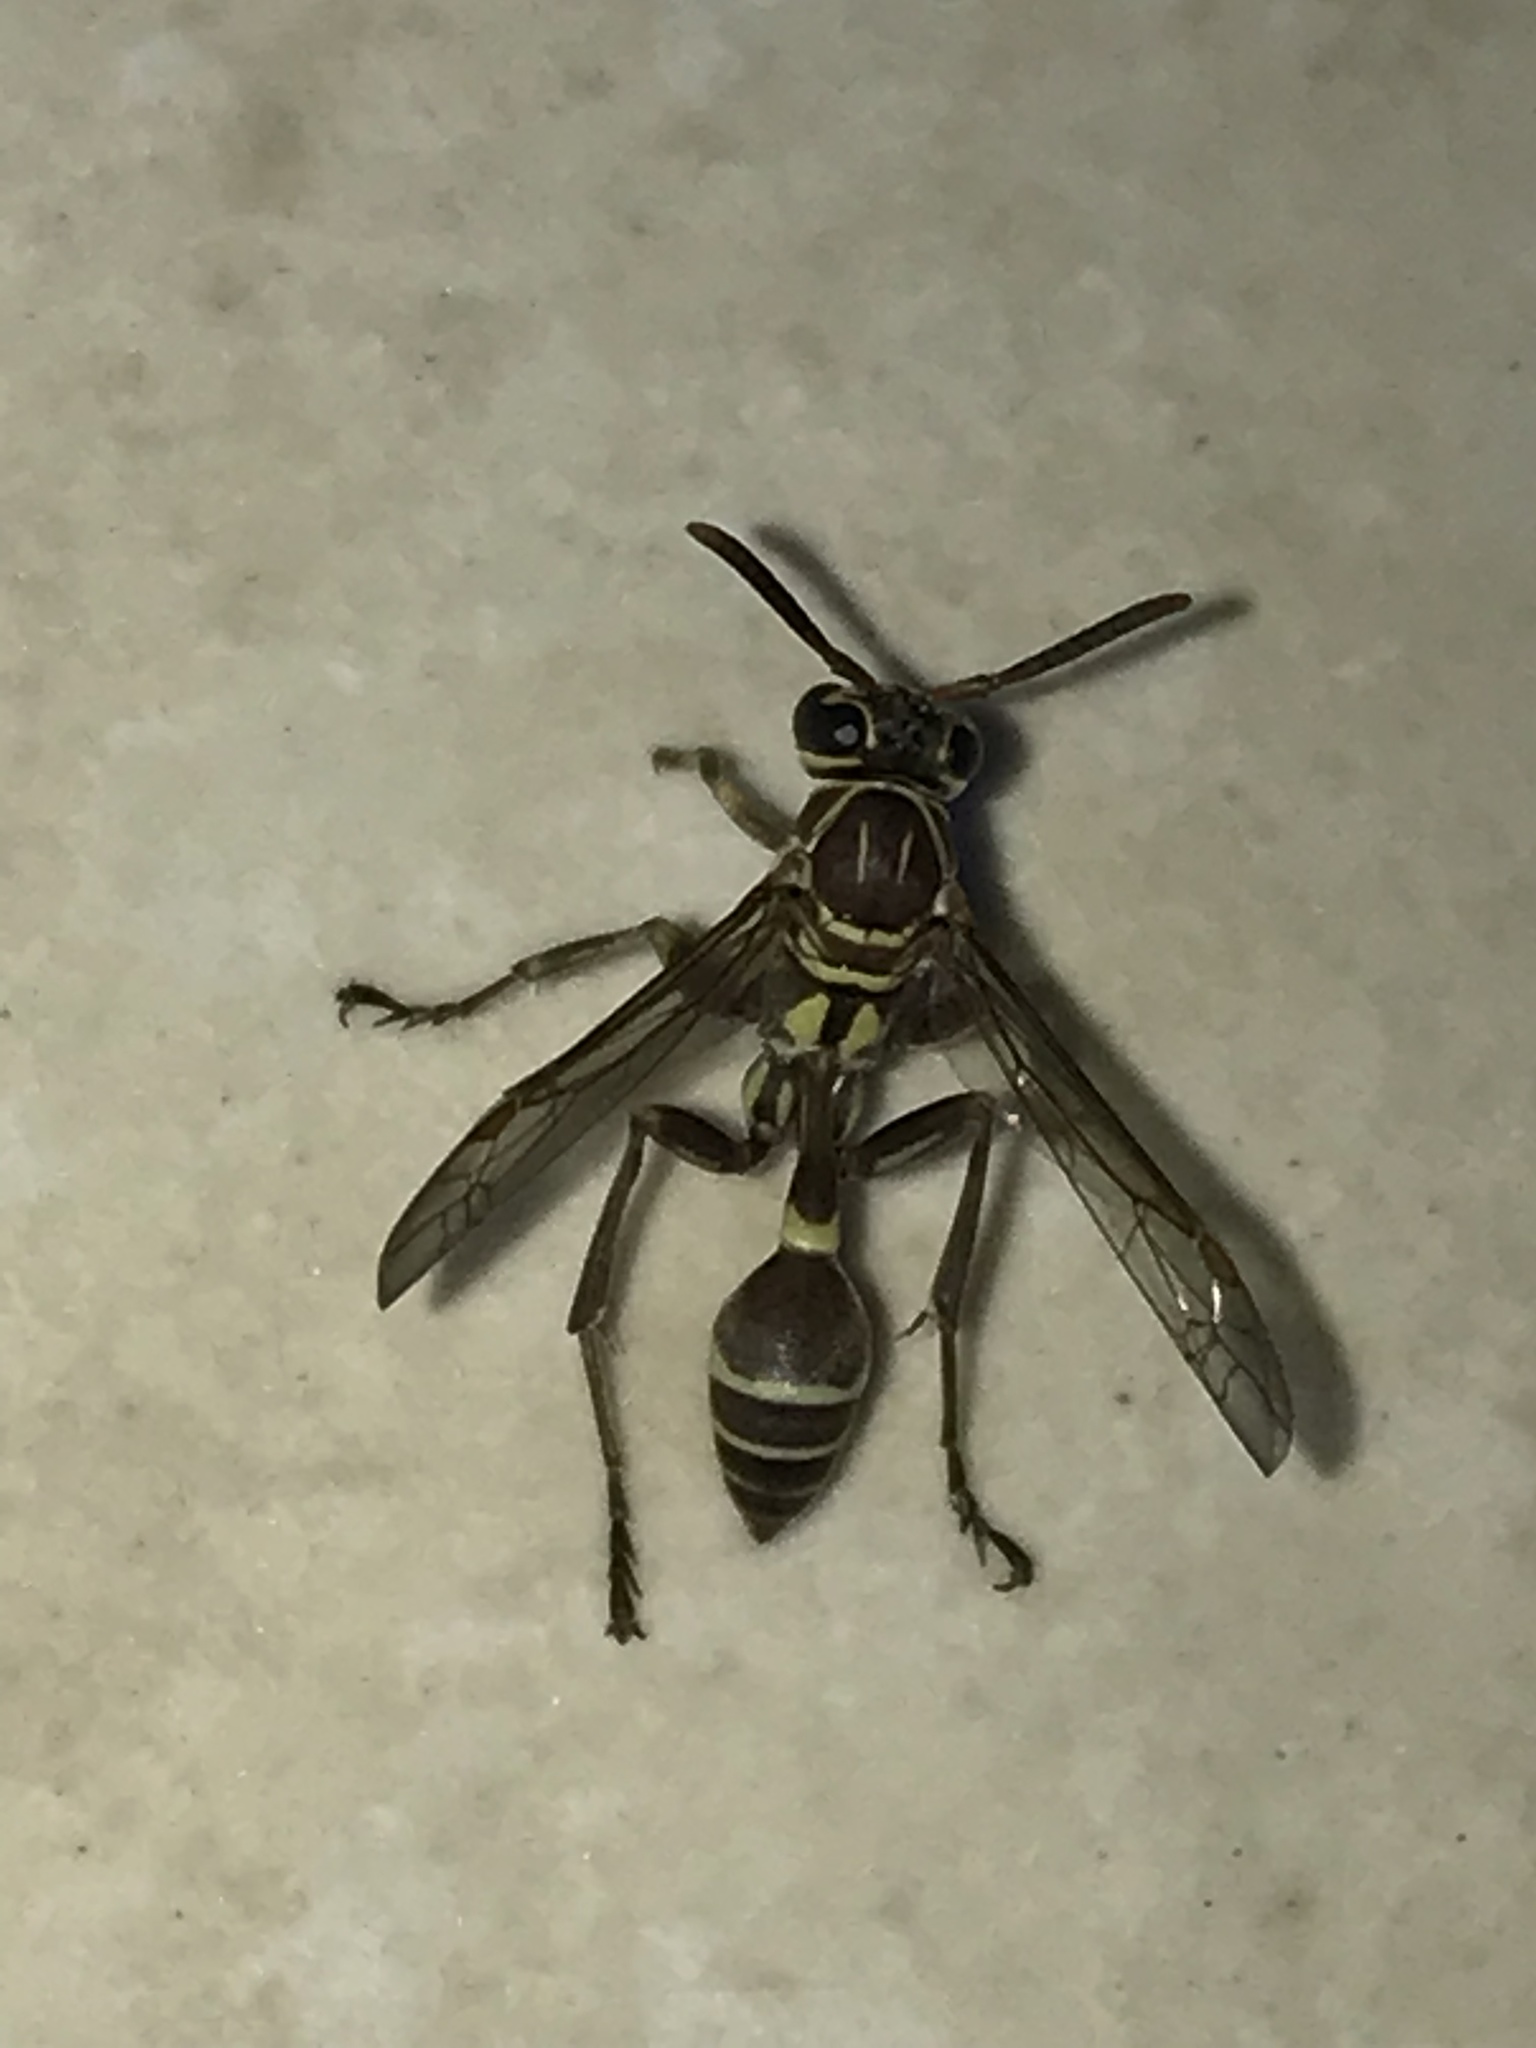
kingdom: Animalia
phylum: Arthropoda
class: Insecta
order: Hymenoptera
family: Vespidae
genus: Mischocyttarus
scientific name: Mischocyttarus mexicanus
